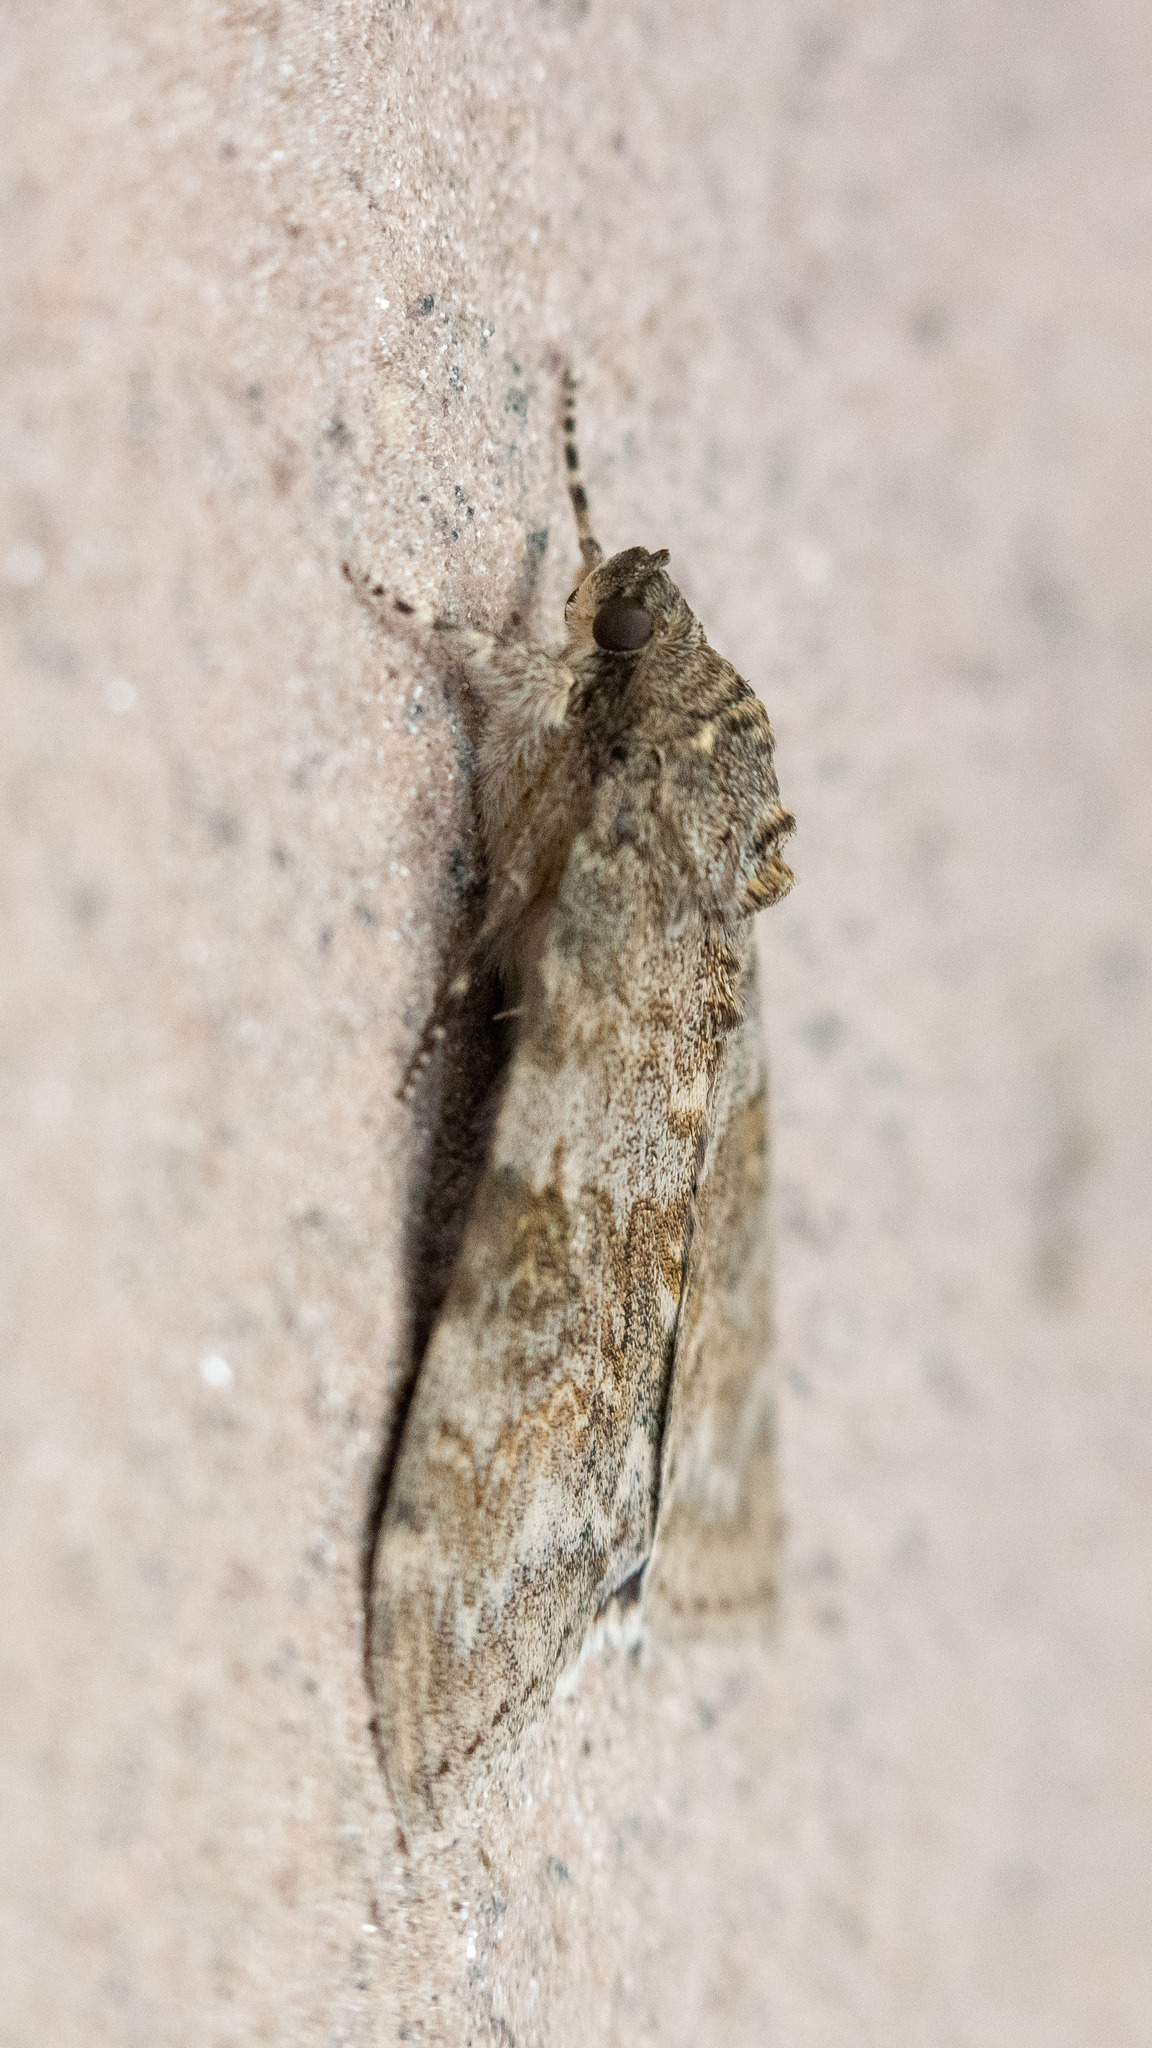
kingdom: Animalia
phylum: Arthropoda
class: Insecta
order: Lepidoptera
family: Erebidae
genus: Catocala
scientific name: Catocala nupta
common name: Red underwing
